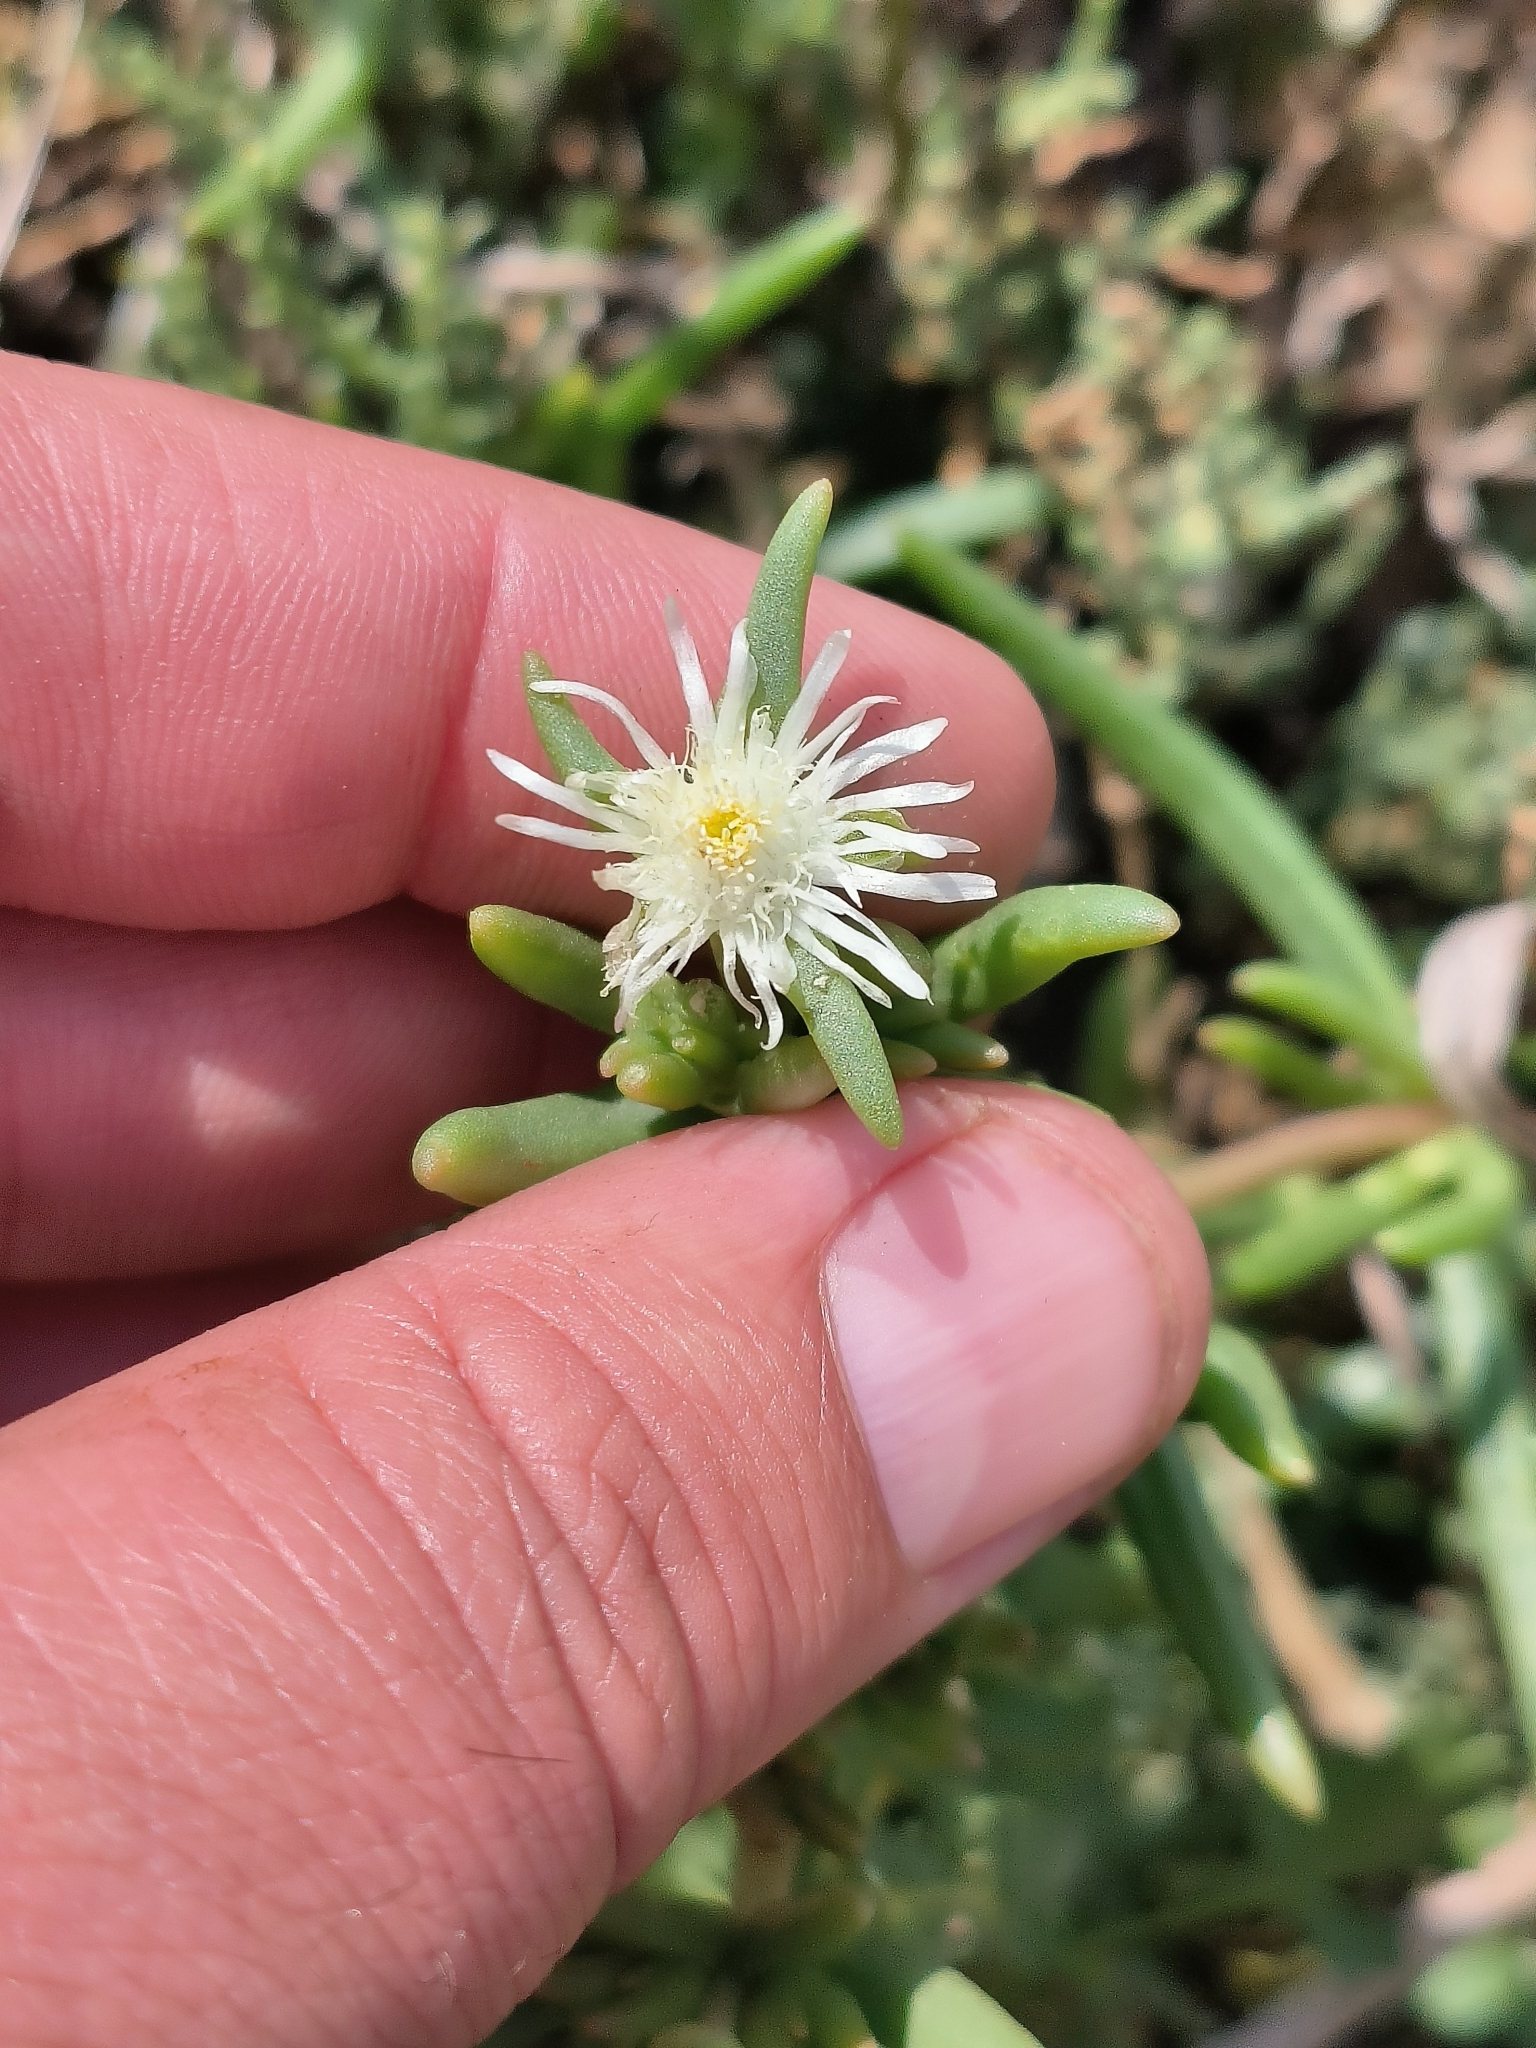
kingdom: Plantae
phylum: Tracheophyta
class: Magnoliopsida
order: Caryophyllales
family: Aizoaceae
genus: Delosperma
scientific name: Delosperma herbeum
